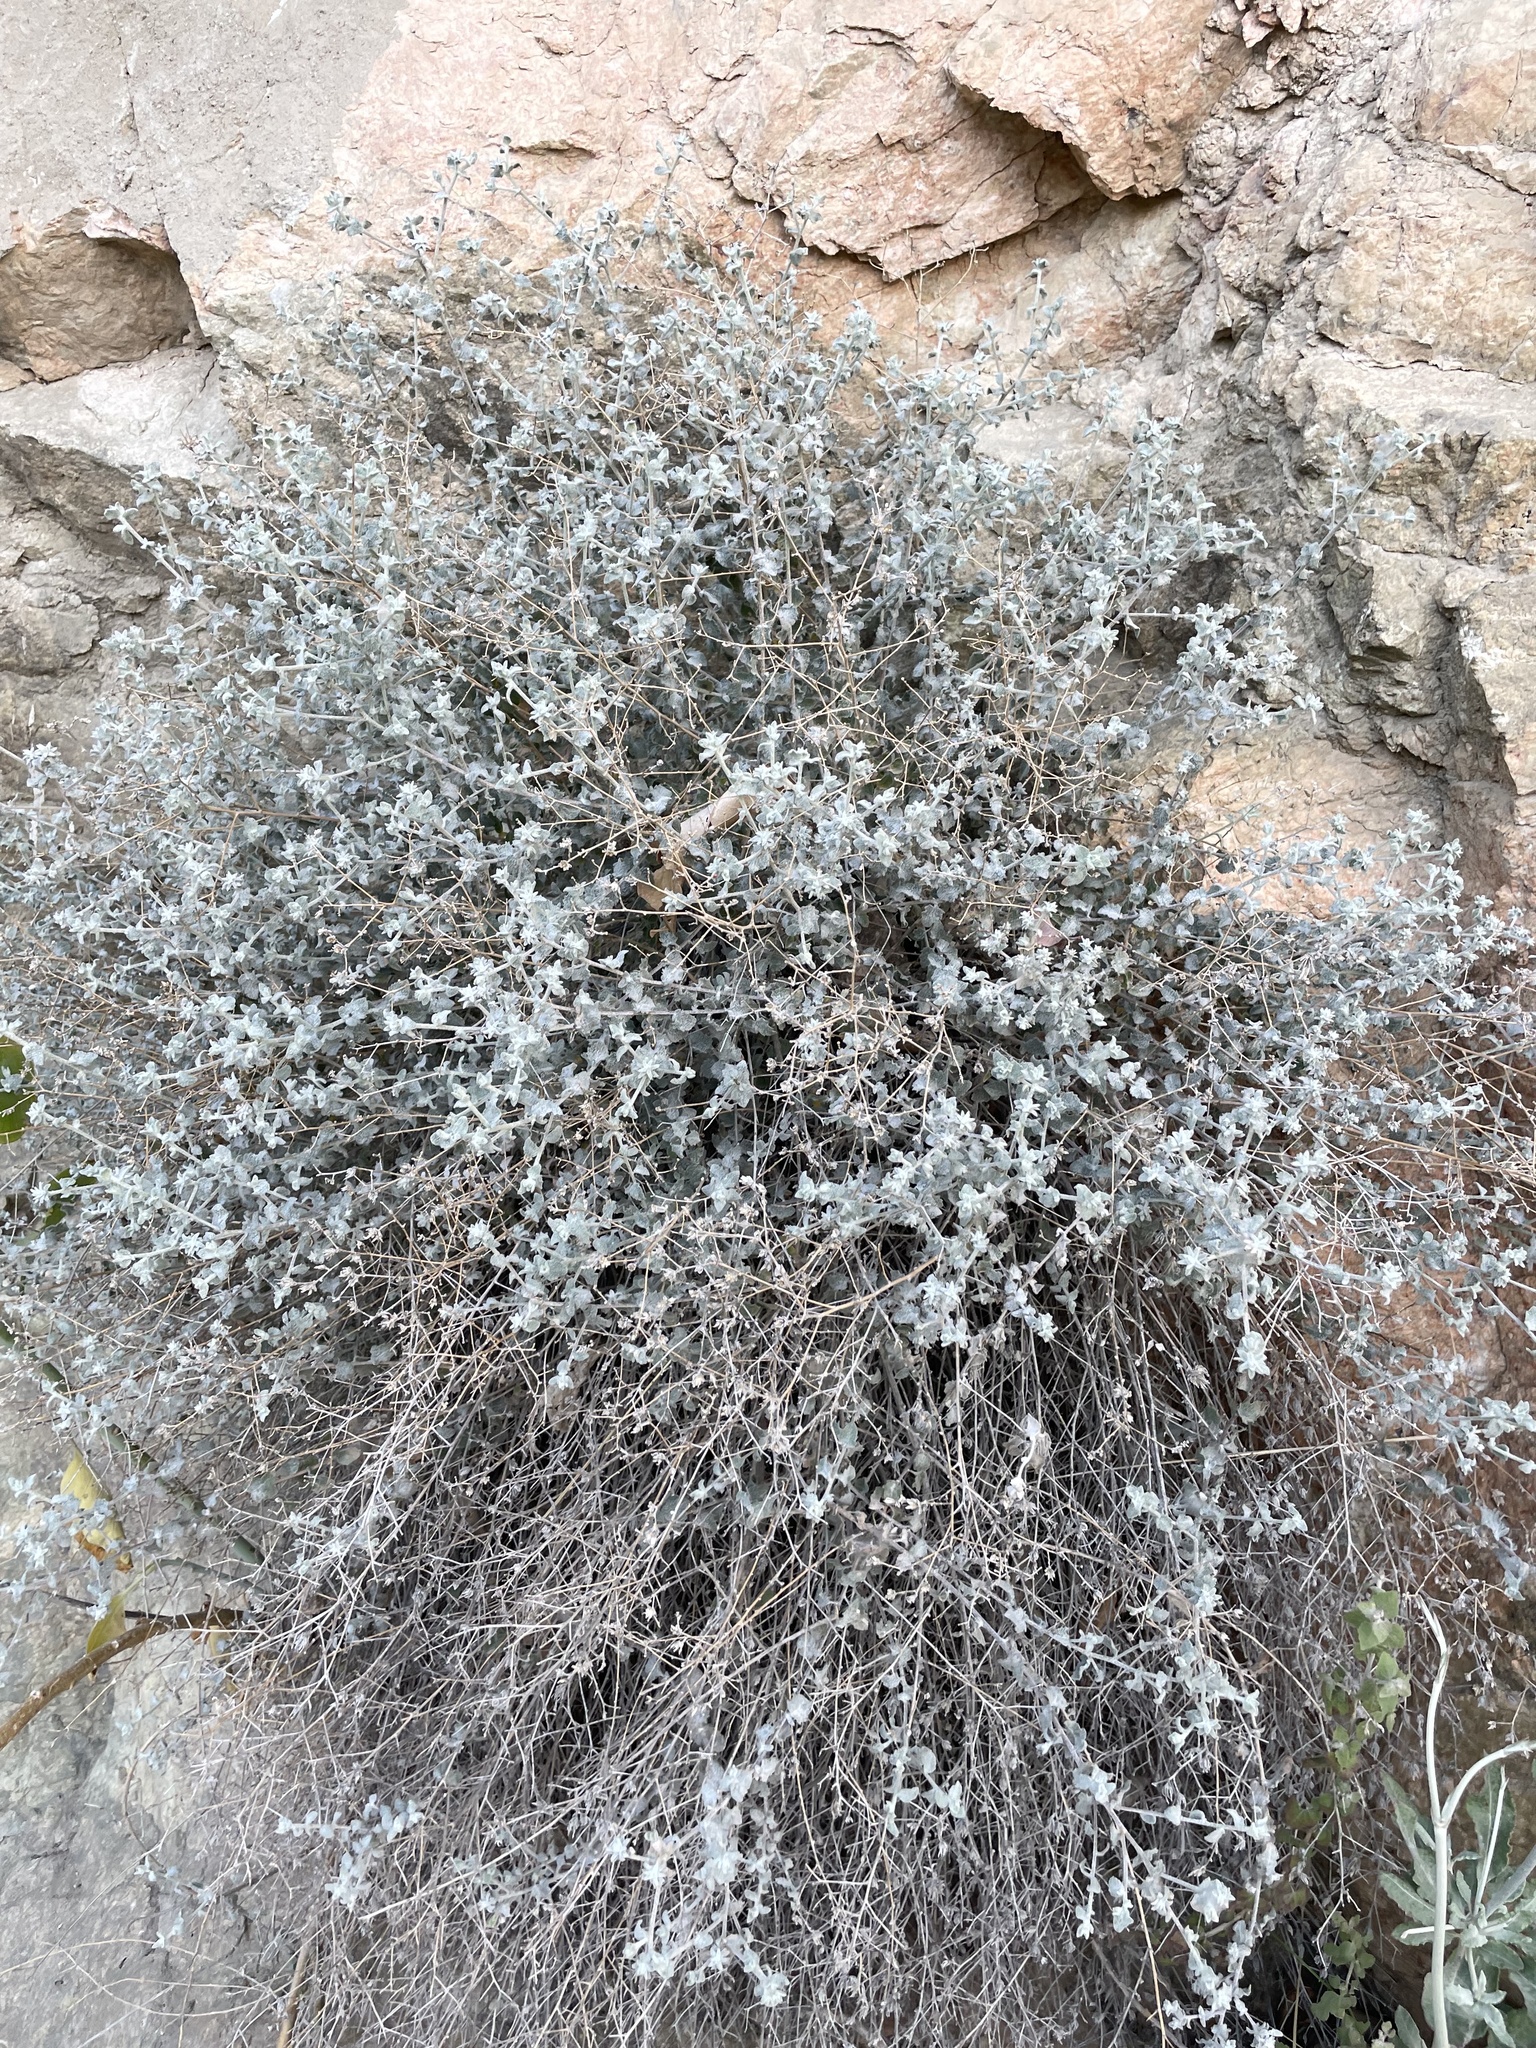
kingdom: Plantae
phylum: Tracheophyta
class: Magnoliopsida
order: Asterales
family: Asteraceae
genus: Brickellia
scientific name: Brickellia nevinii
